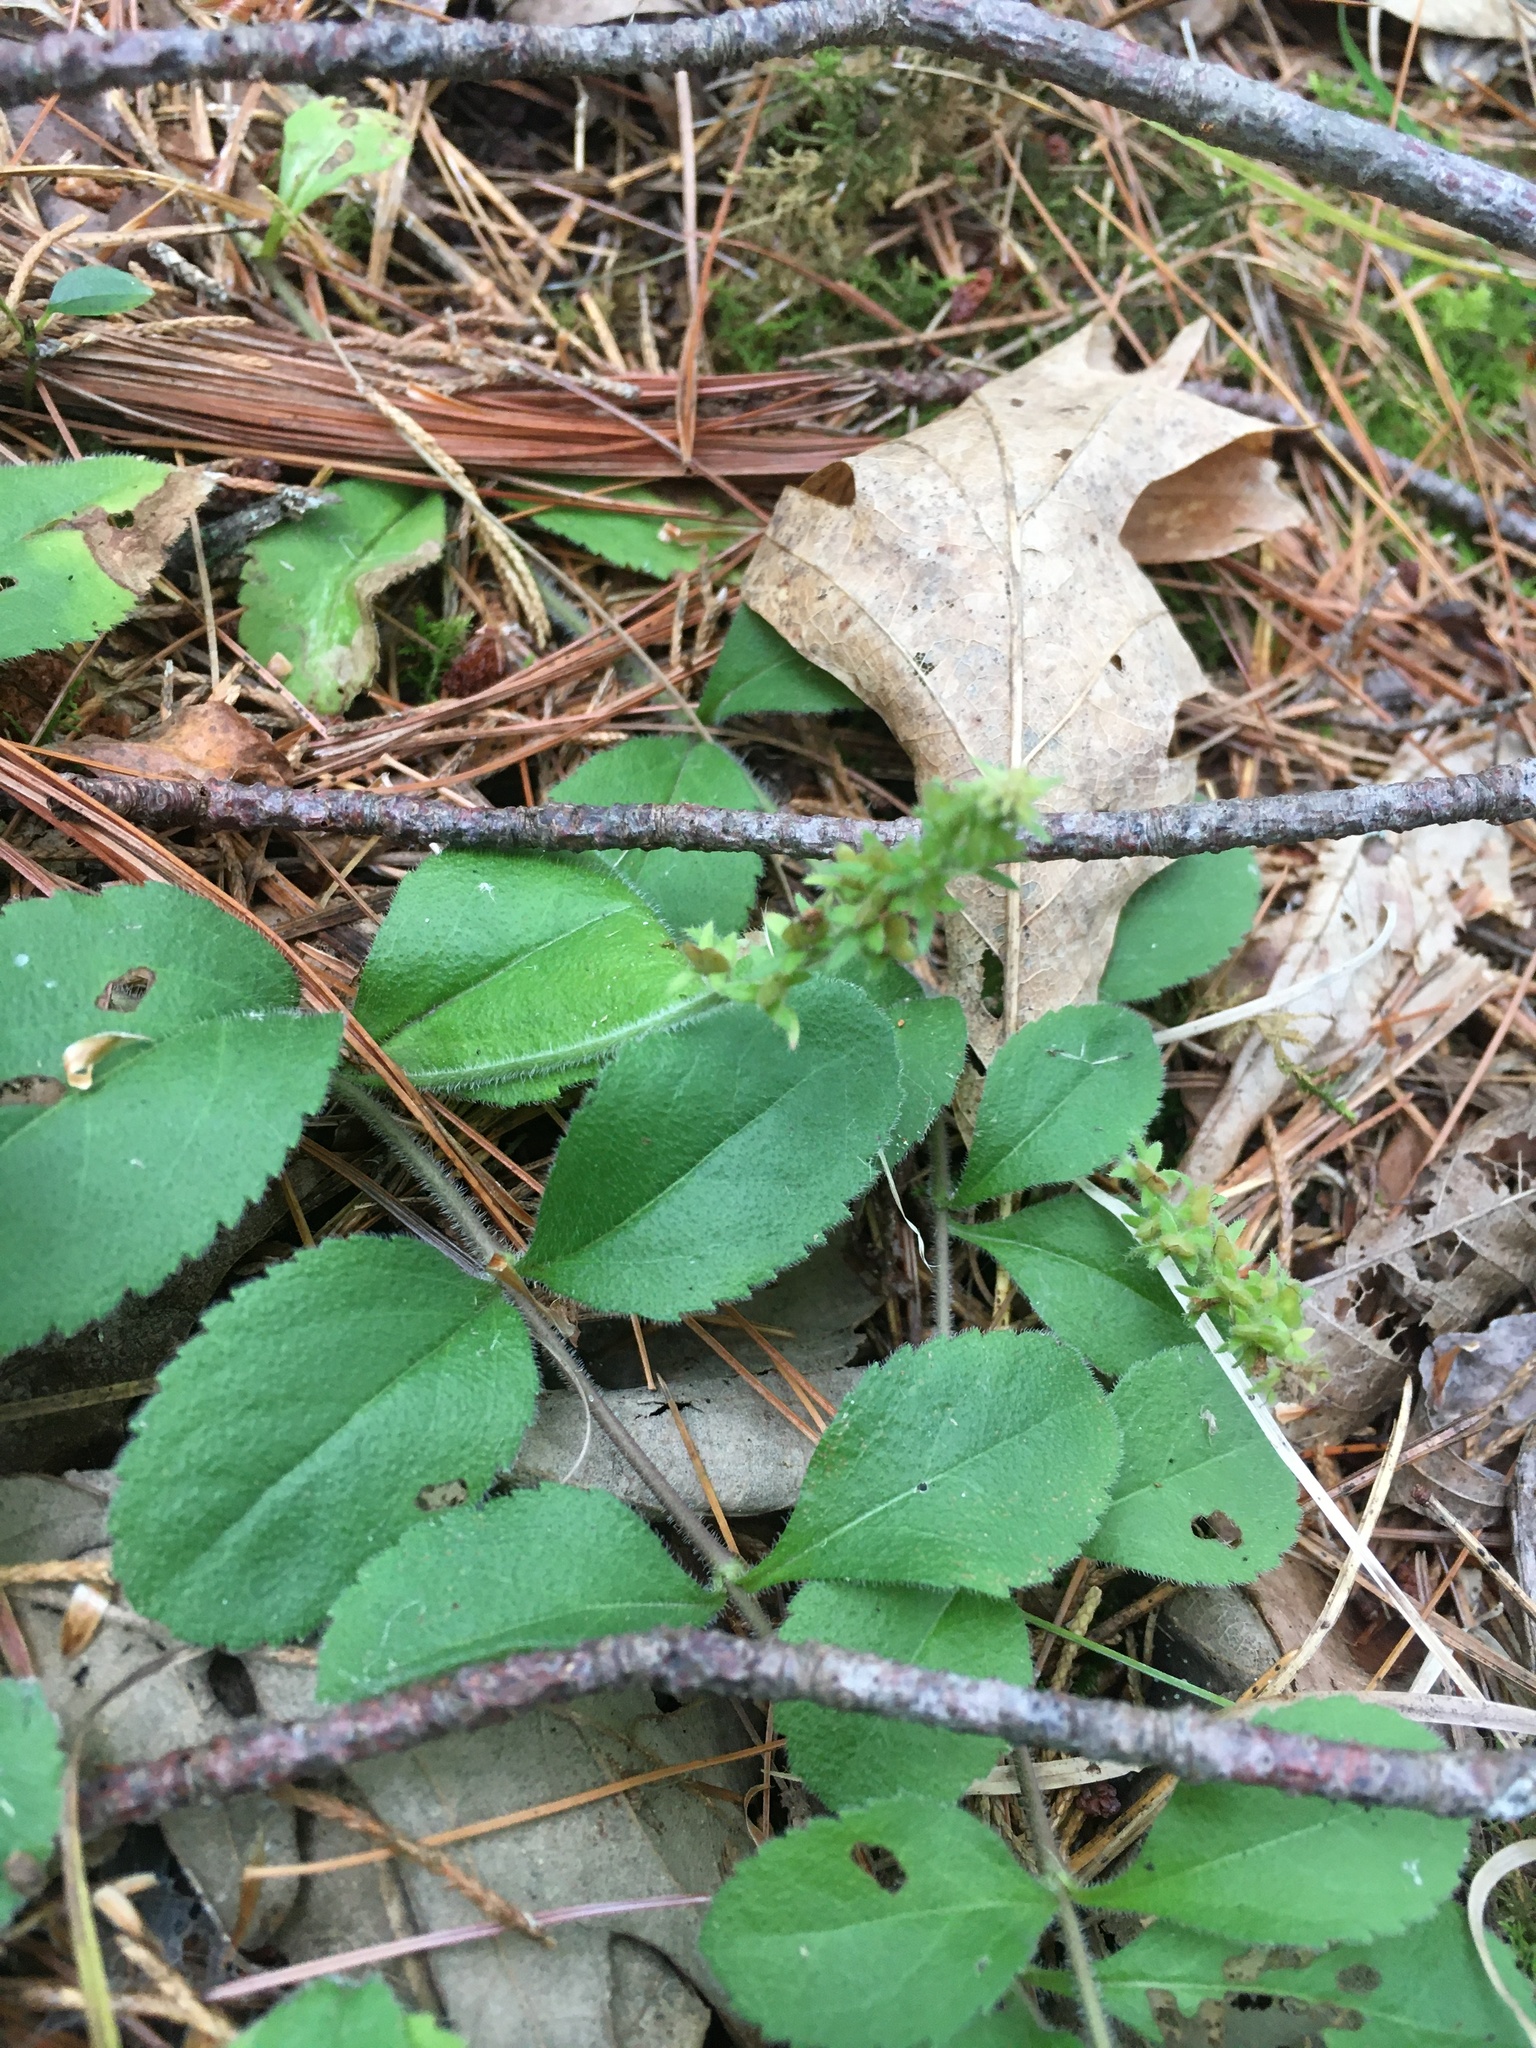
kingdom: Plantae
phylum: Tracheophyta
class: Magnoliopsida
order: Lamiales
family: Plantaginaceae
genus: Veronica
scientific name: Veronica officinalis
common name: Common speedwell
